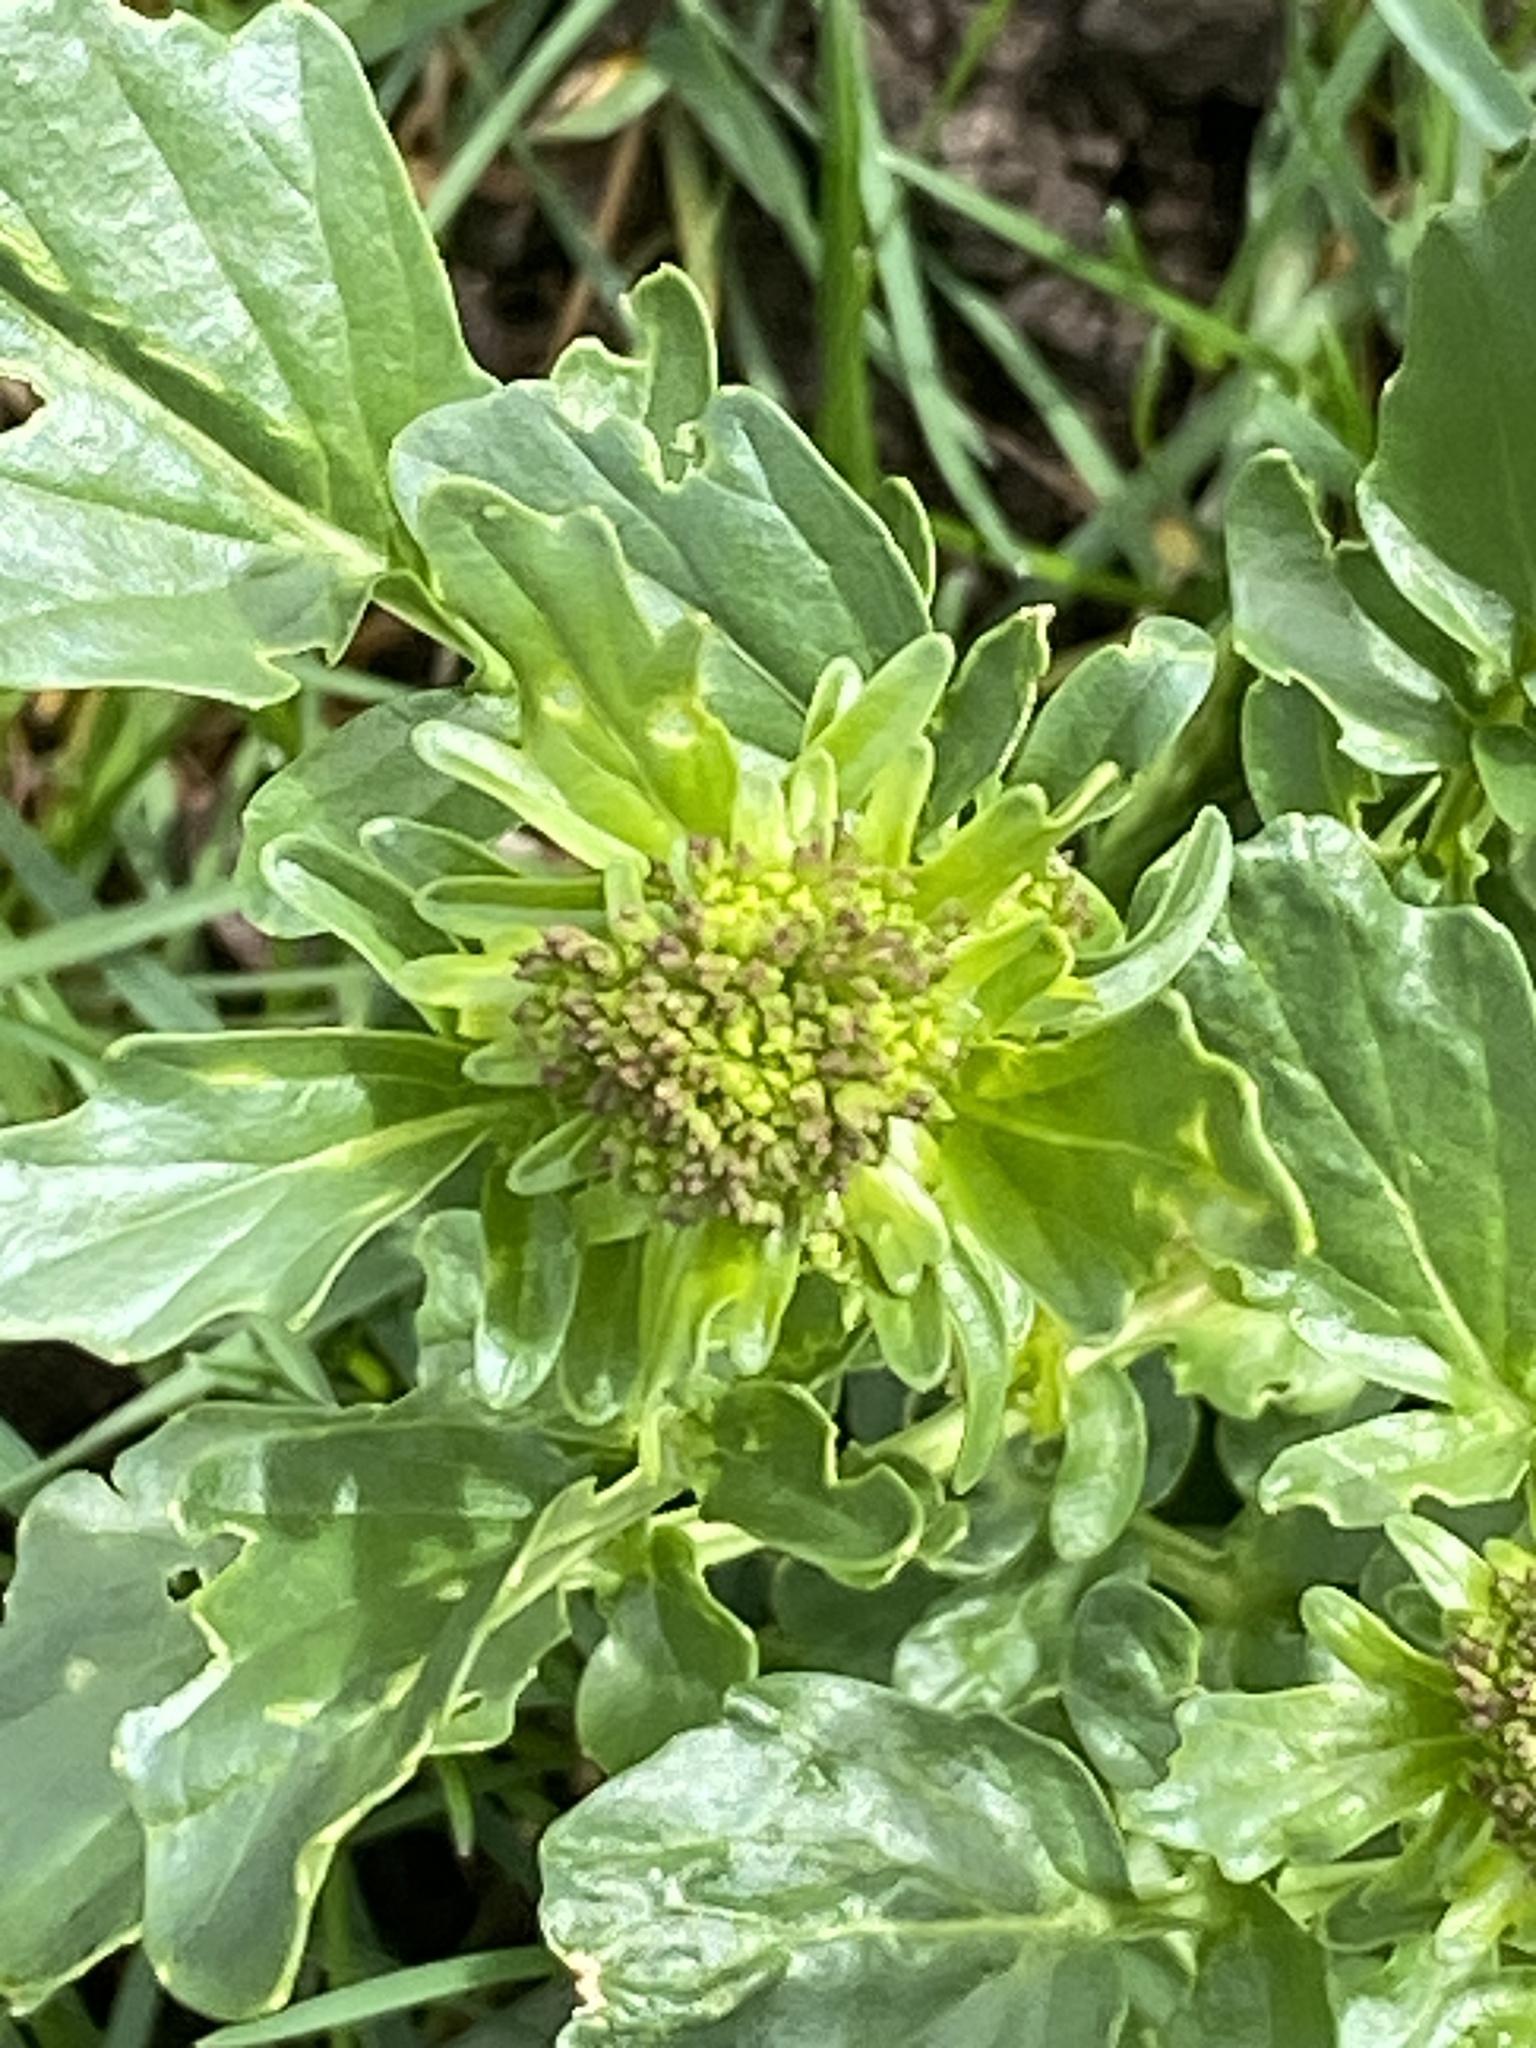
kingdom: Plantae
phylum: Tracheophyta
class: Magnoliopsida
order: Brassicales
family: Brassicaceae
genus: Barbarea
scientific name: Barbarea vulgaris
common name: Cressy-greens
